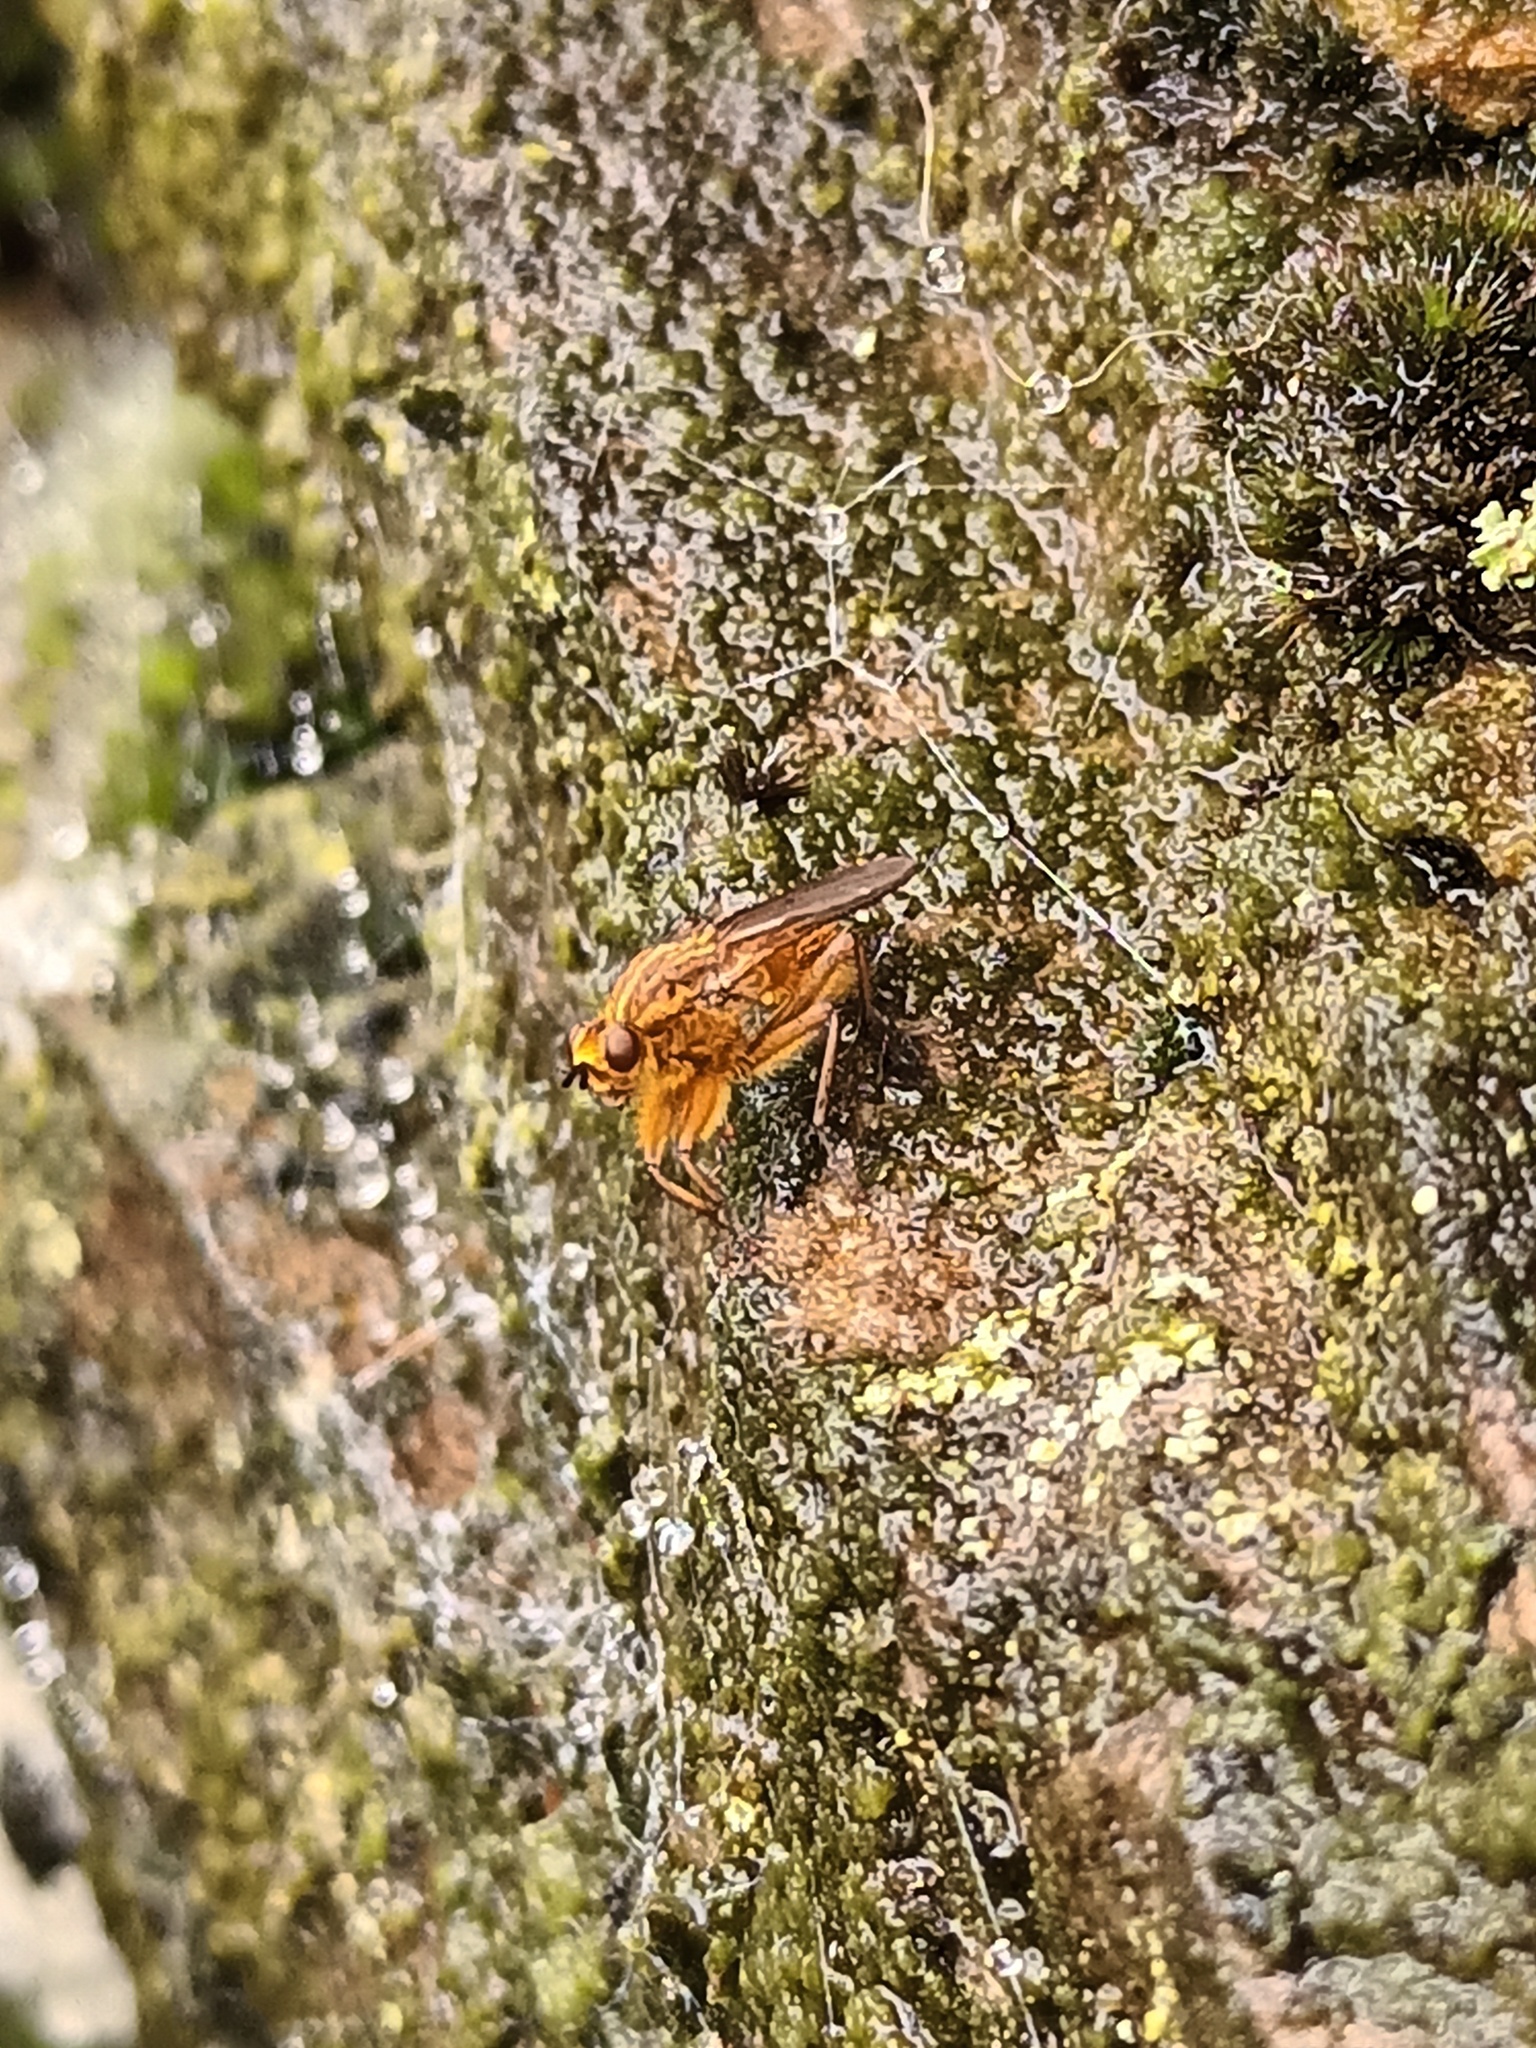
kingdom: Animalia
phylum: Arthropoda
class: Insecta
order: Diptera
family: Scathophagidae
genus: Scathophaga
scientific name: Scathophaga stercoraria
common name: Yellow dung fly
